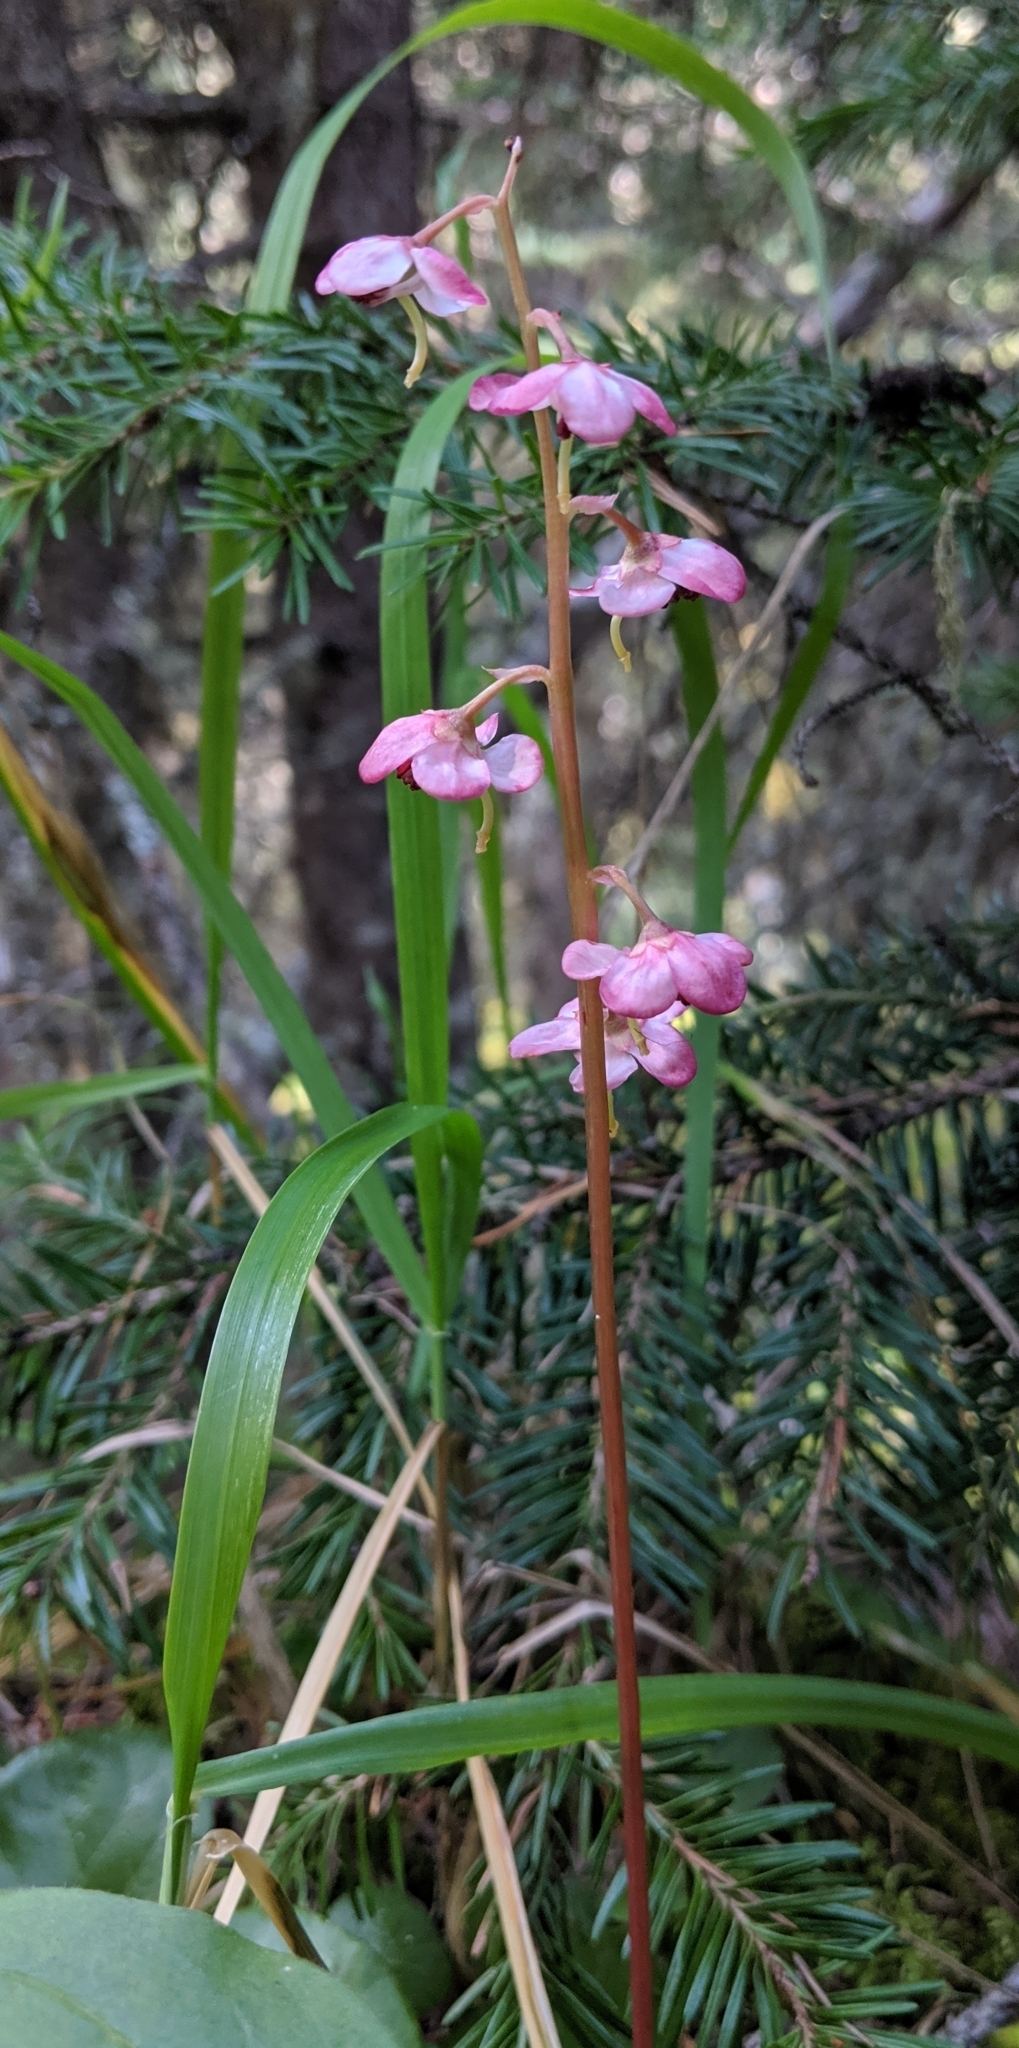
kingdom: Plantae
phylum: Tracheophyta
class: Magnoliopsida
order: Ericales
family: Ericaceae
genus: Pyrola
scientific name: Pyrola asarifolia
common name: Bog wintergreen
